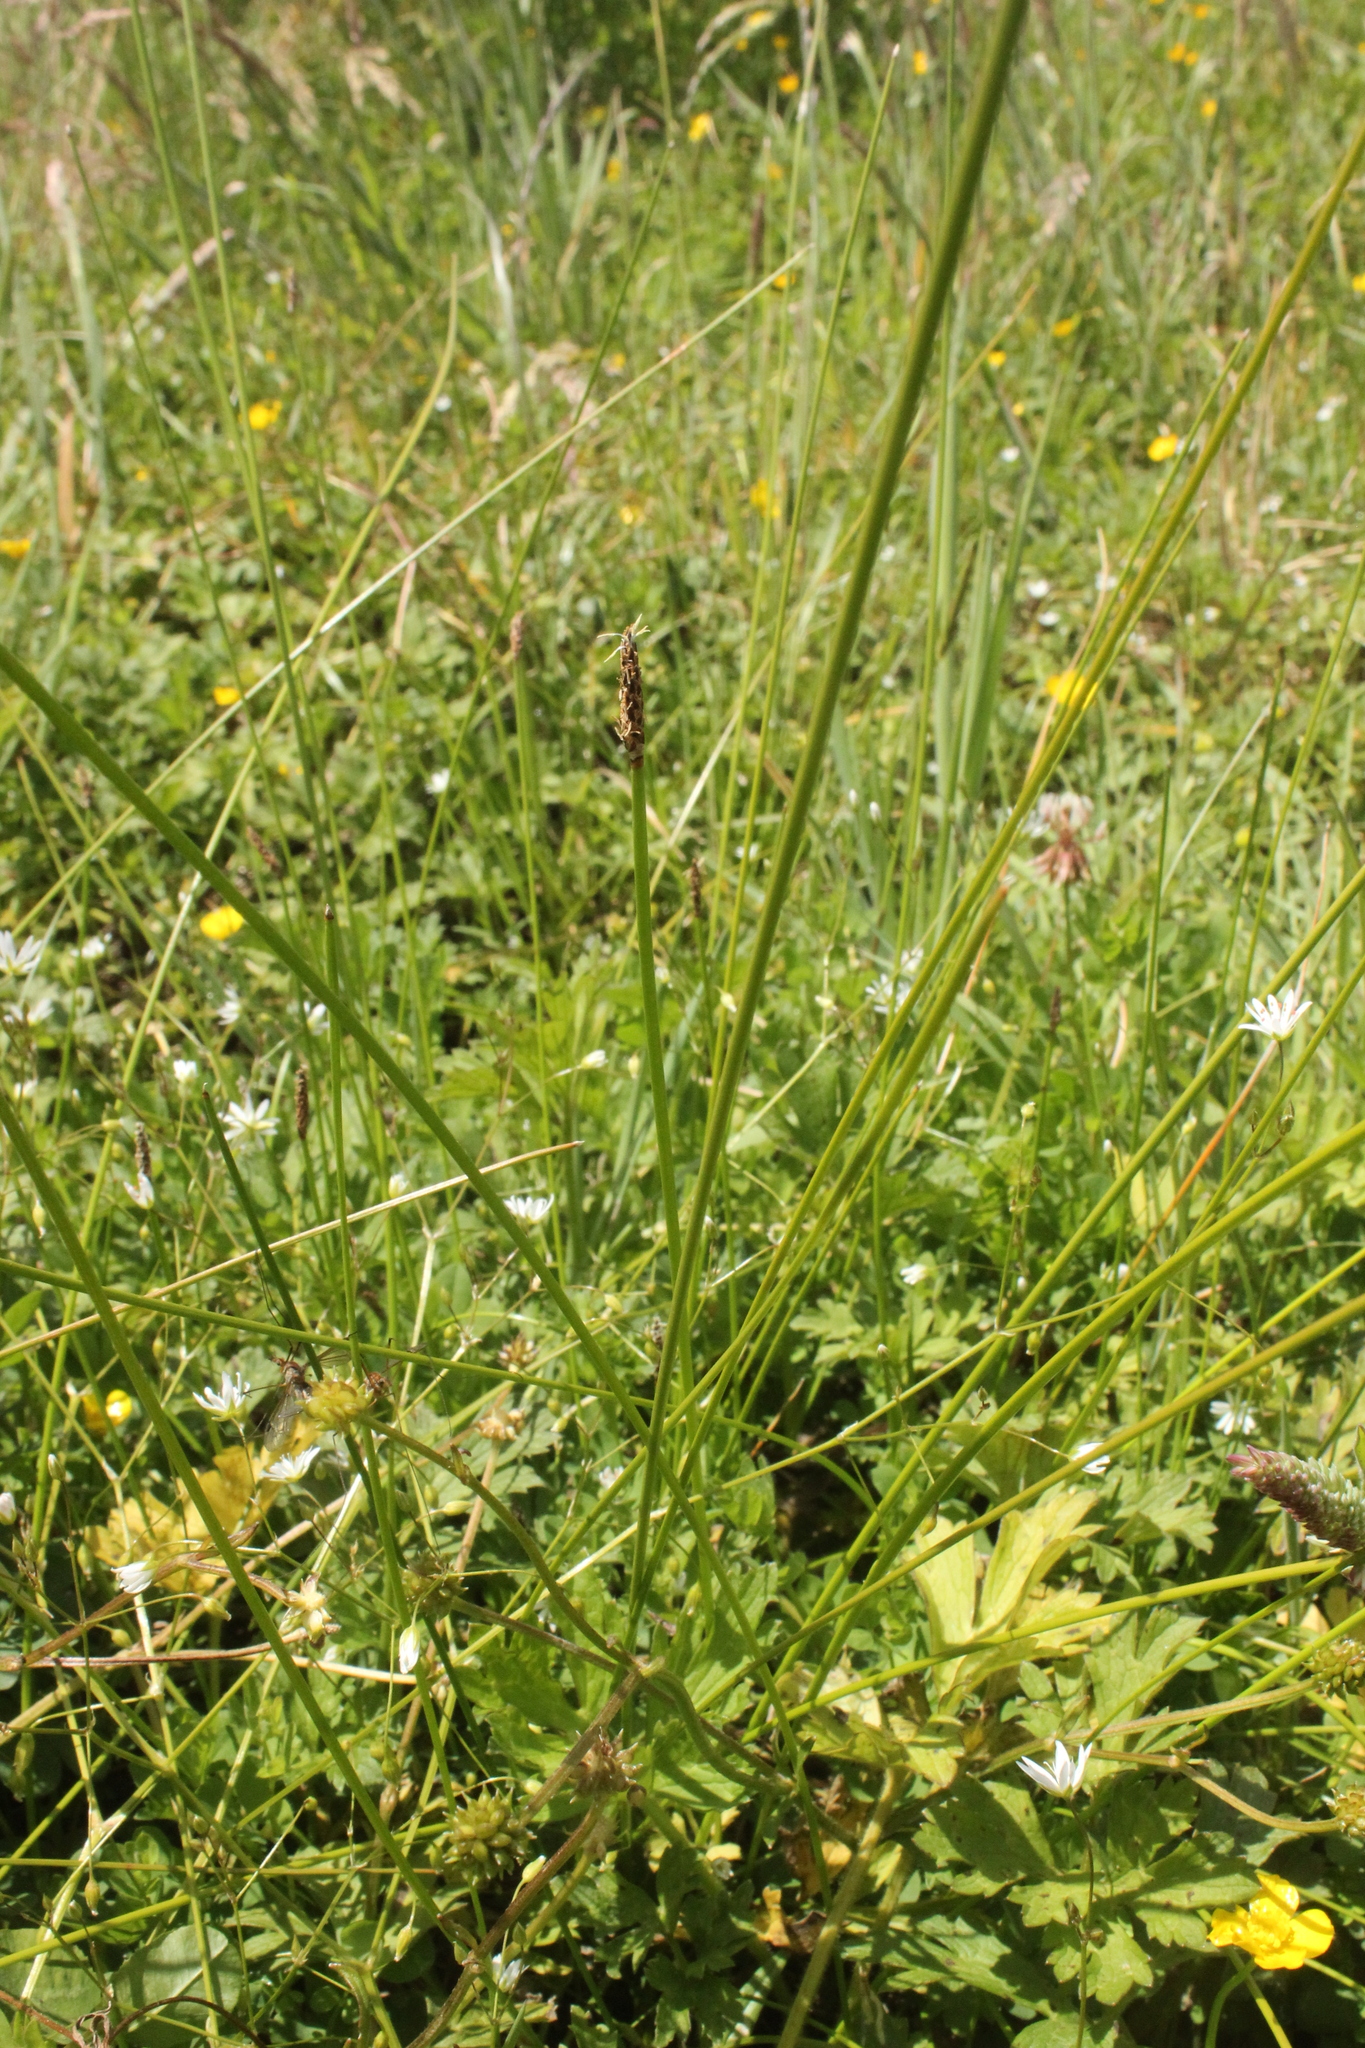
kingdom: Plantae
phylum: Tracheophyta
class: Liliopsida
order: Poales
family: Cyperaceae
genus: Eleocharis
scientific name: Eleocharis acuta
